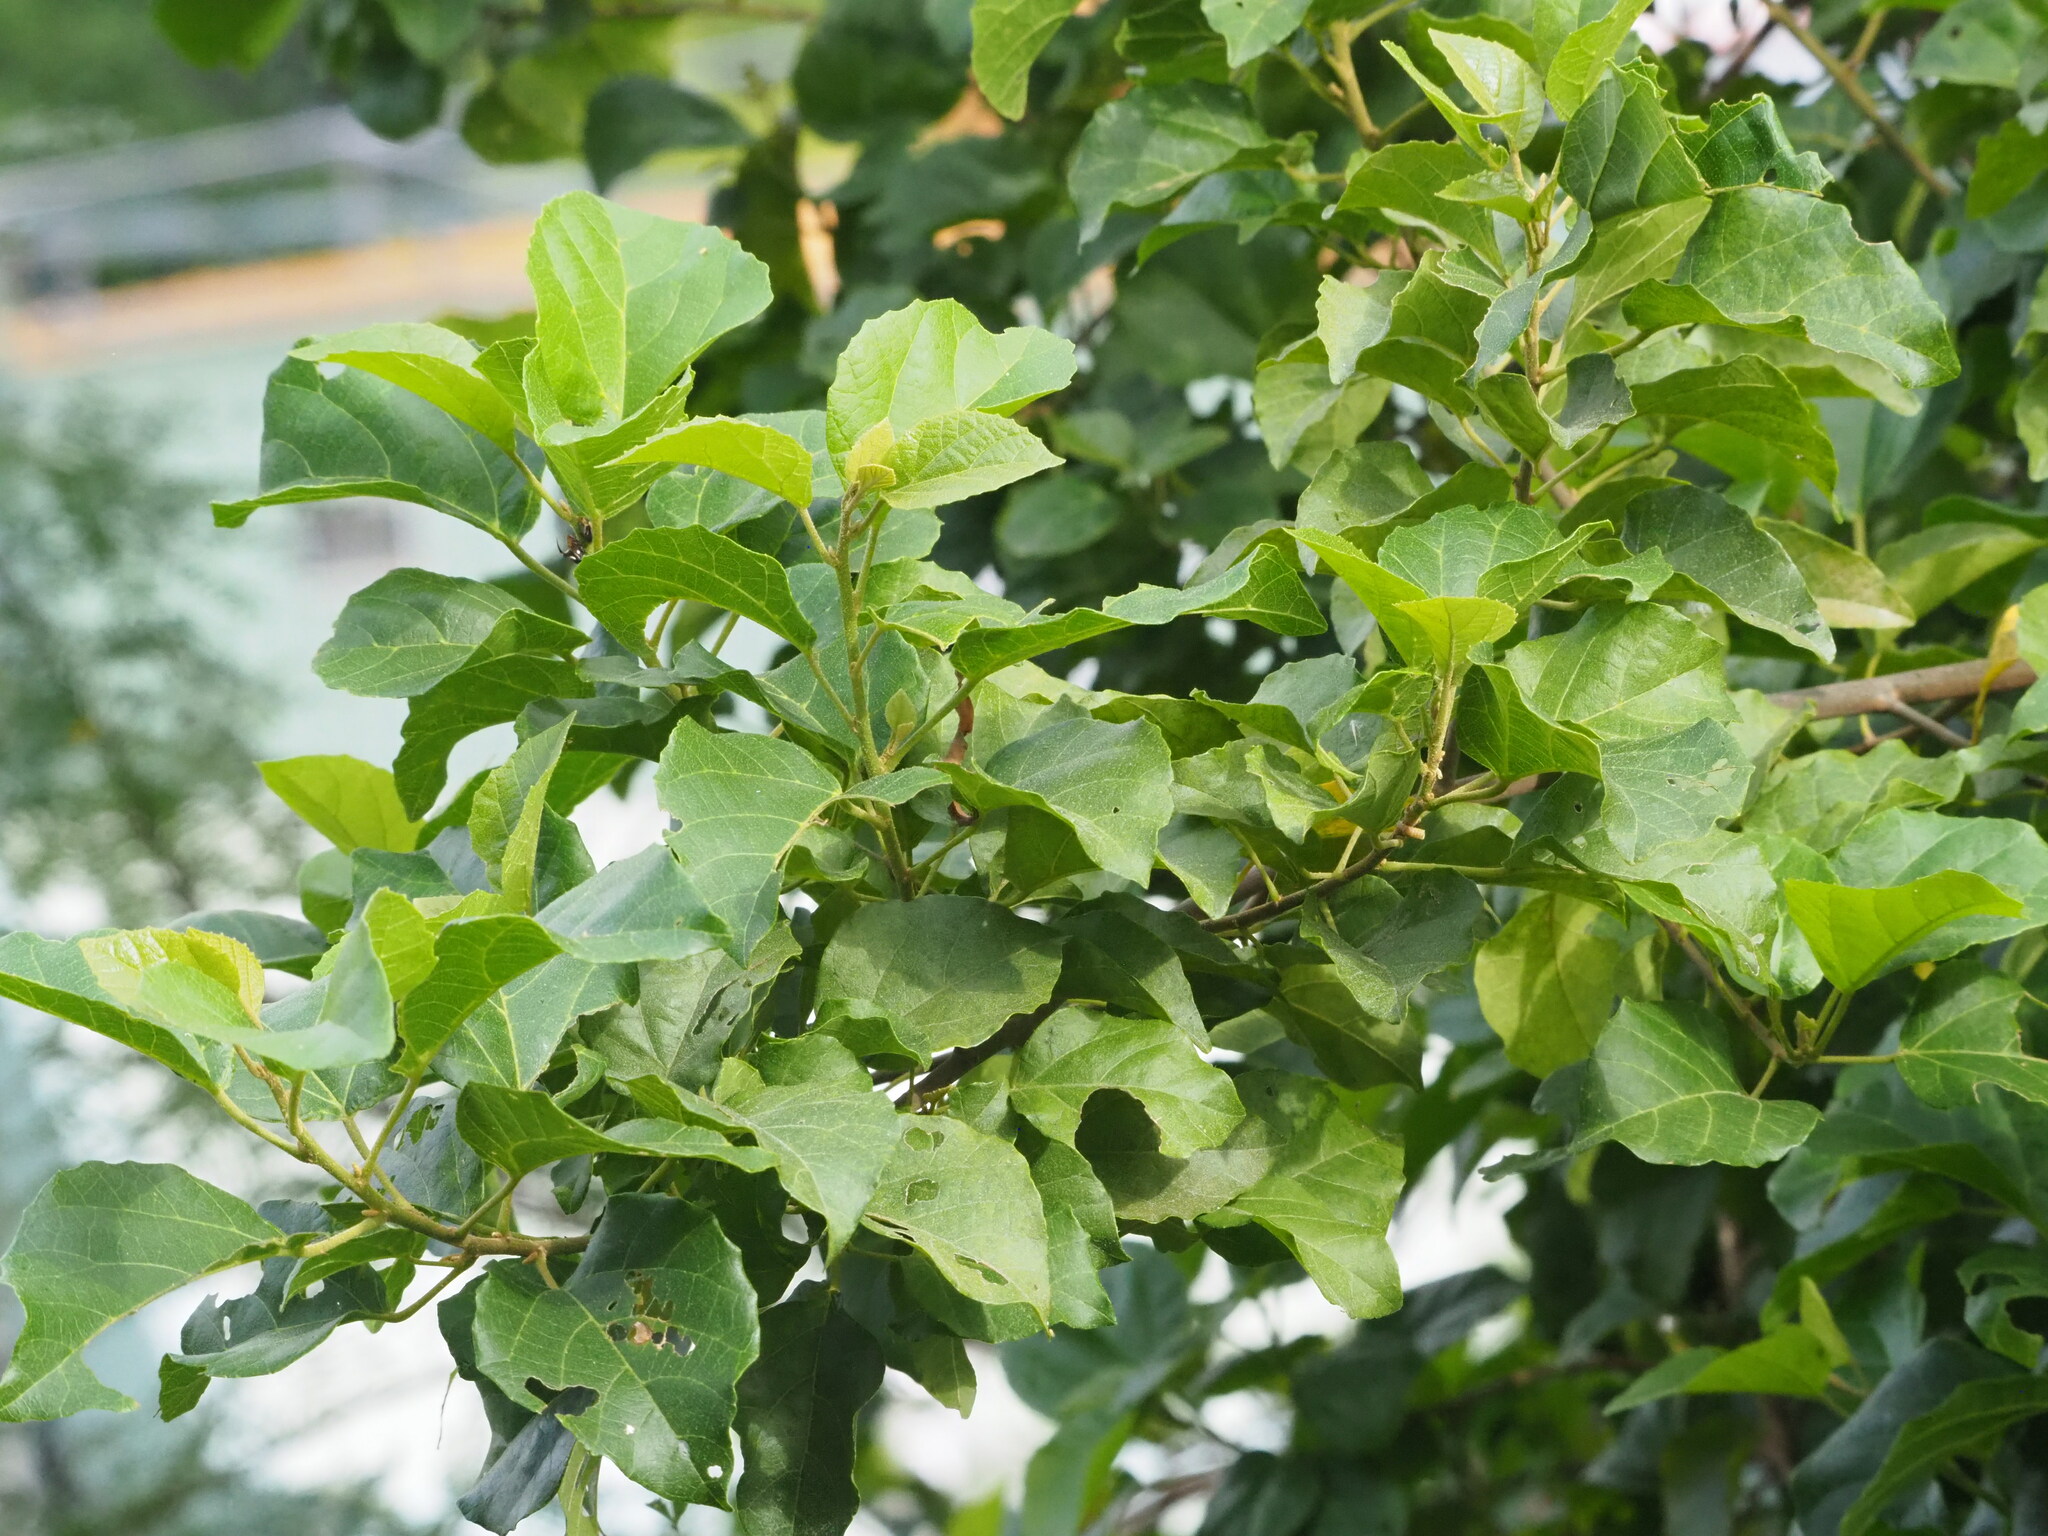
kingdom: Plantae
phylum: Tracheophyta
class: Magnoliopsida
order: Boraginales
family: Cordiaceae
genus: Cordia
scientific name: Cordia dichotoma
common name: Fragrant manjack
